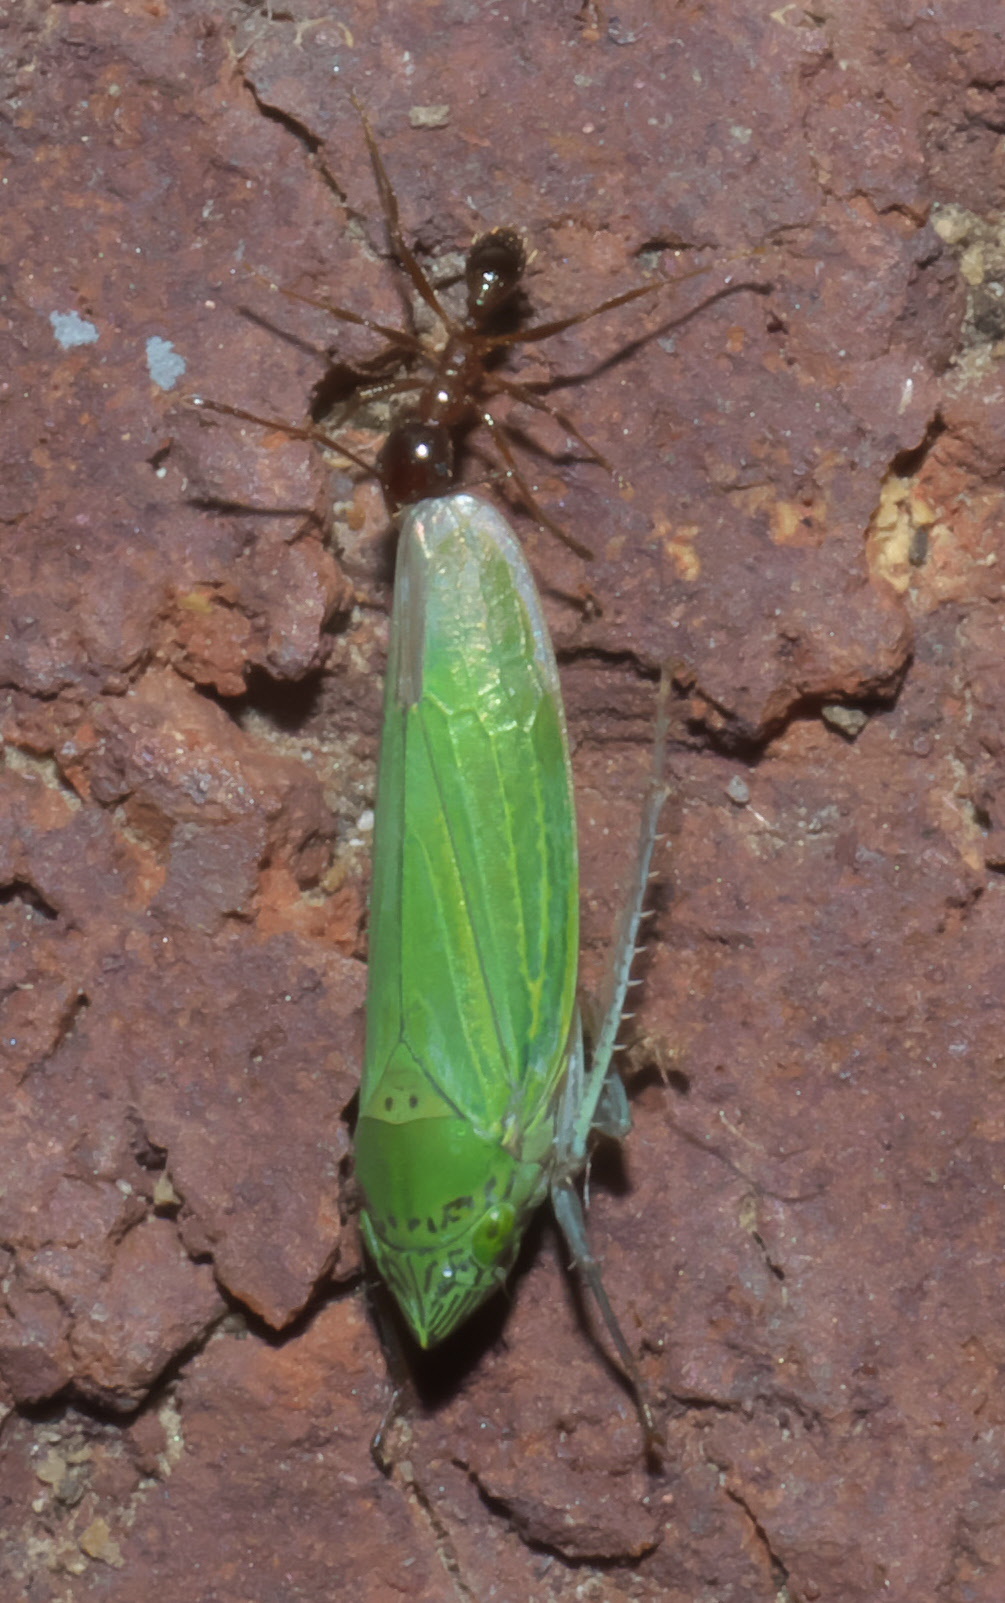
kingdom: Animalia
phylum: Arthropoda
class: Insecta
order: Hymenoptera
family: Formicidae
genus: Pheidole
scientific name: Pheidole dentata
